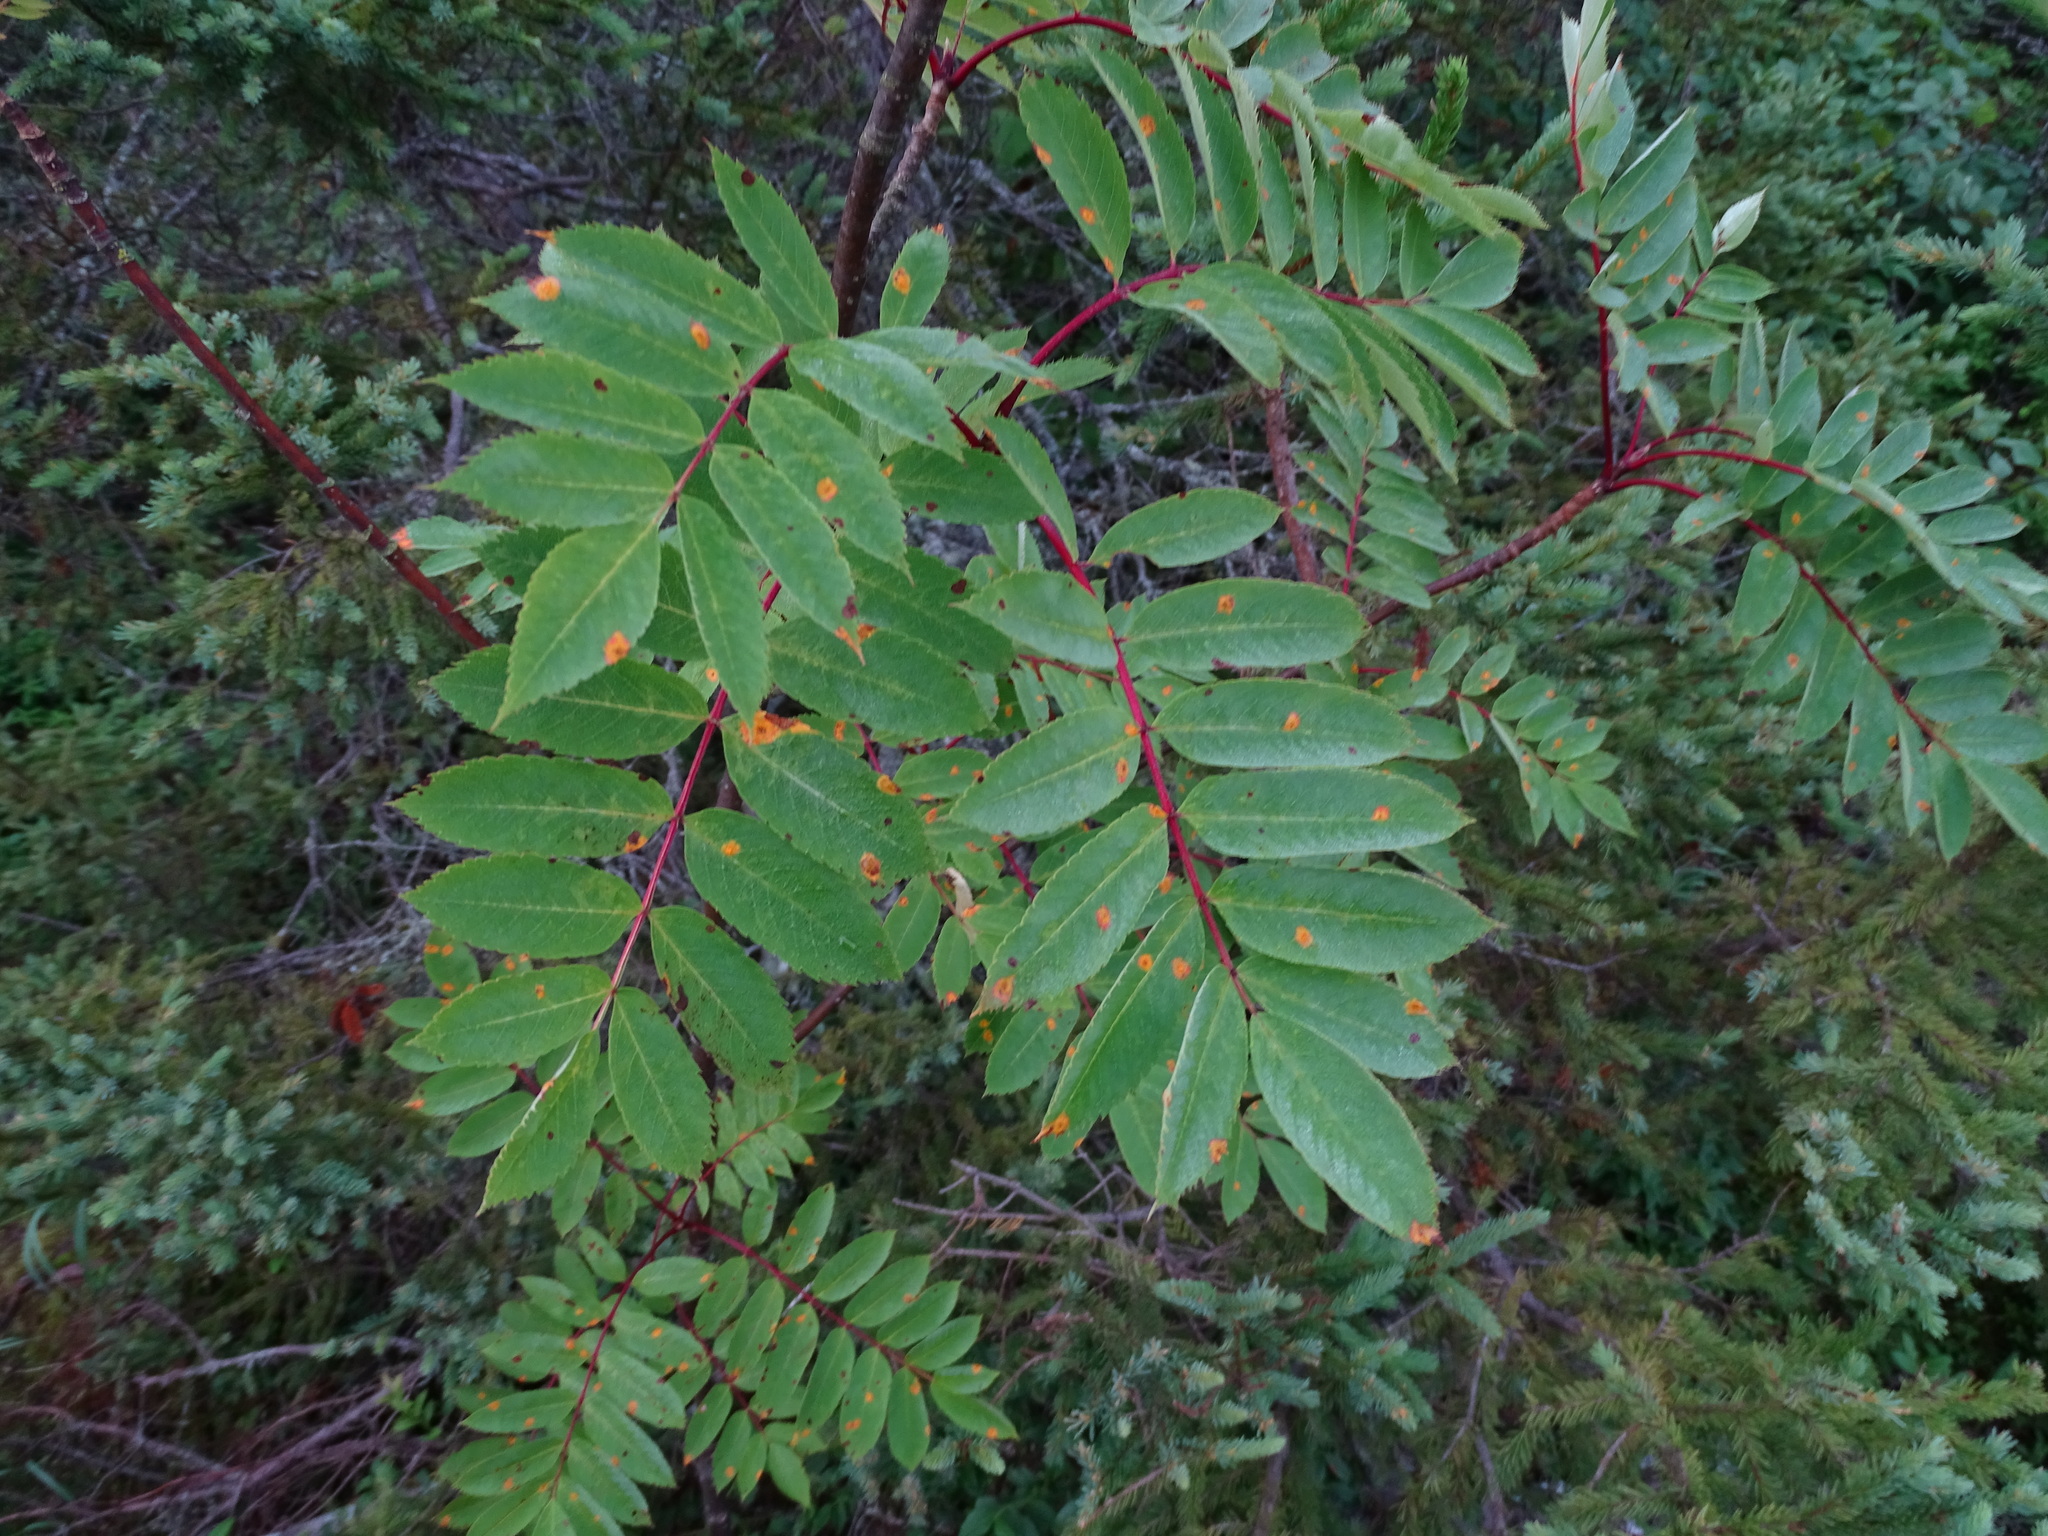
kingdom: Plantae
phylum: Tracheophyta
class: Magnoliopsida
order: Rosales
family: Rosaceae
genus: Sorbus
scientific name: Sorbus decora
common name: Northern mountain-ash
